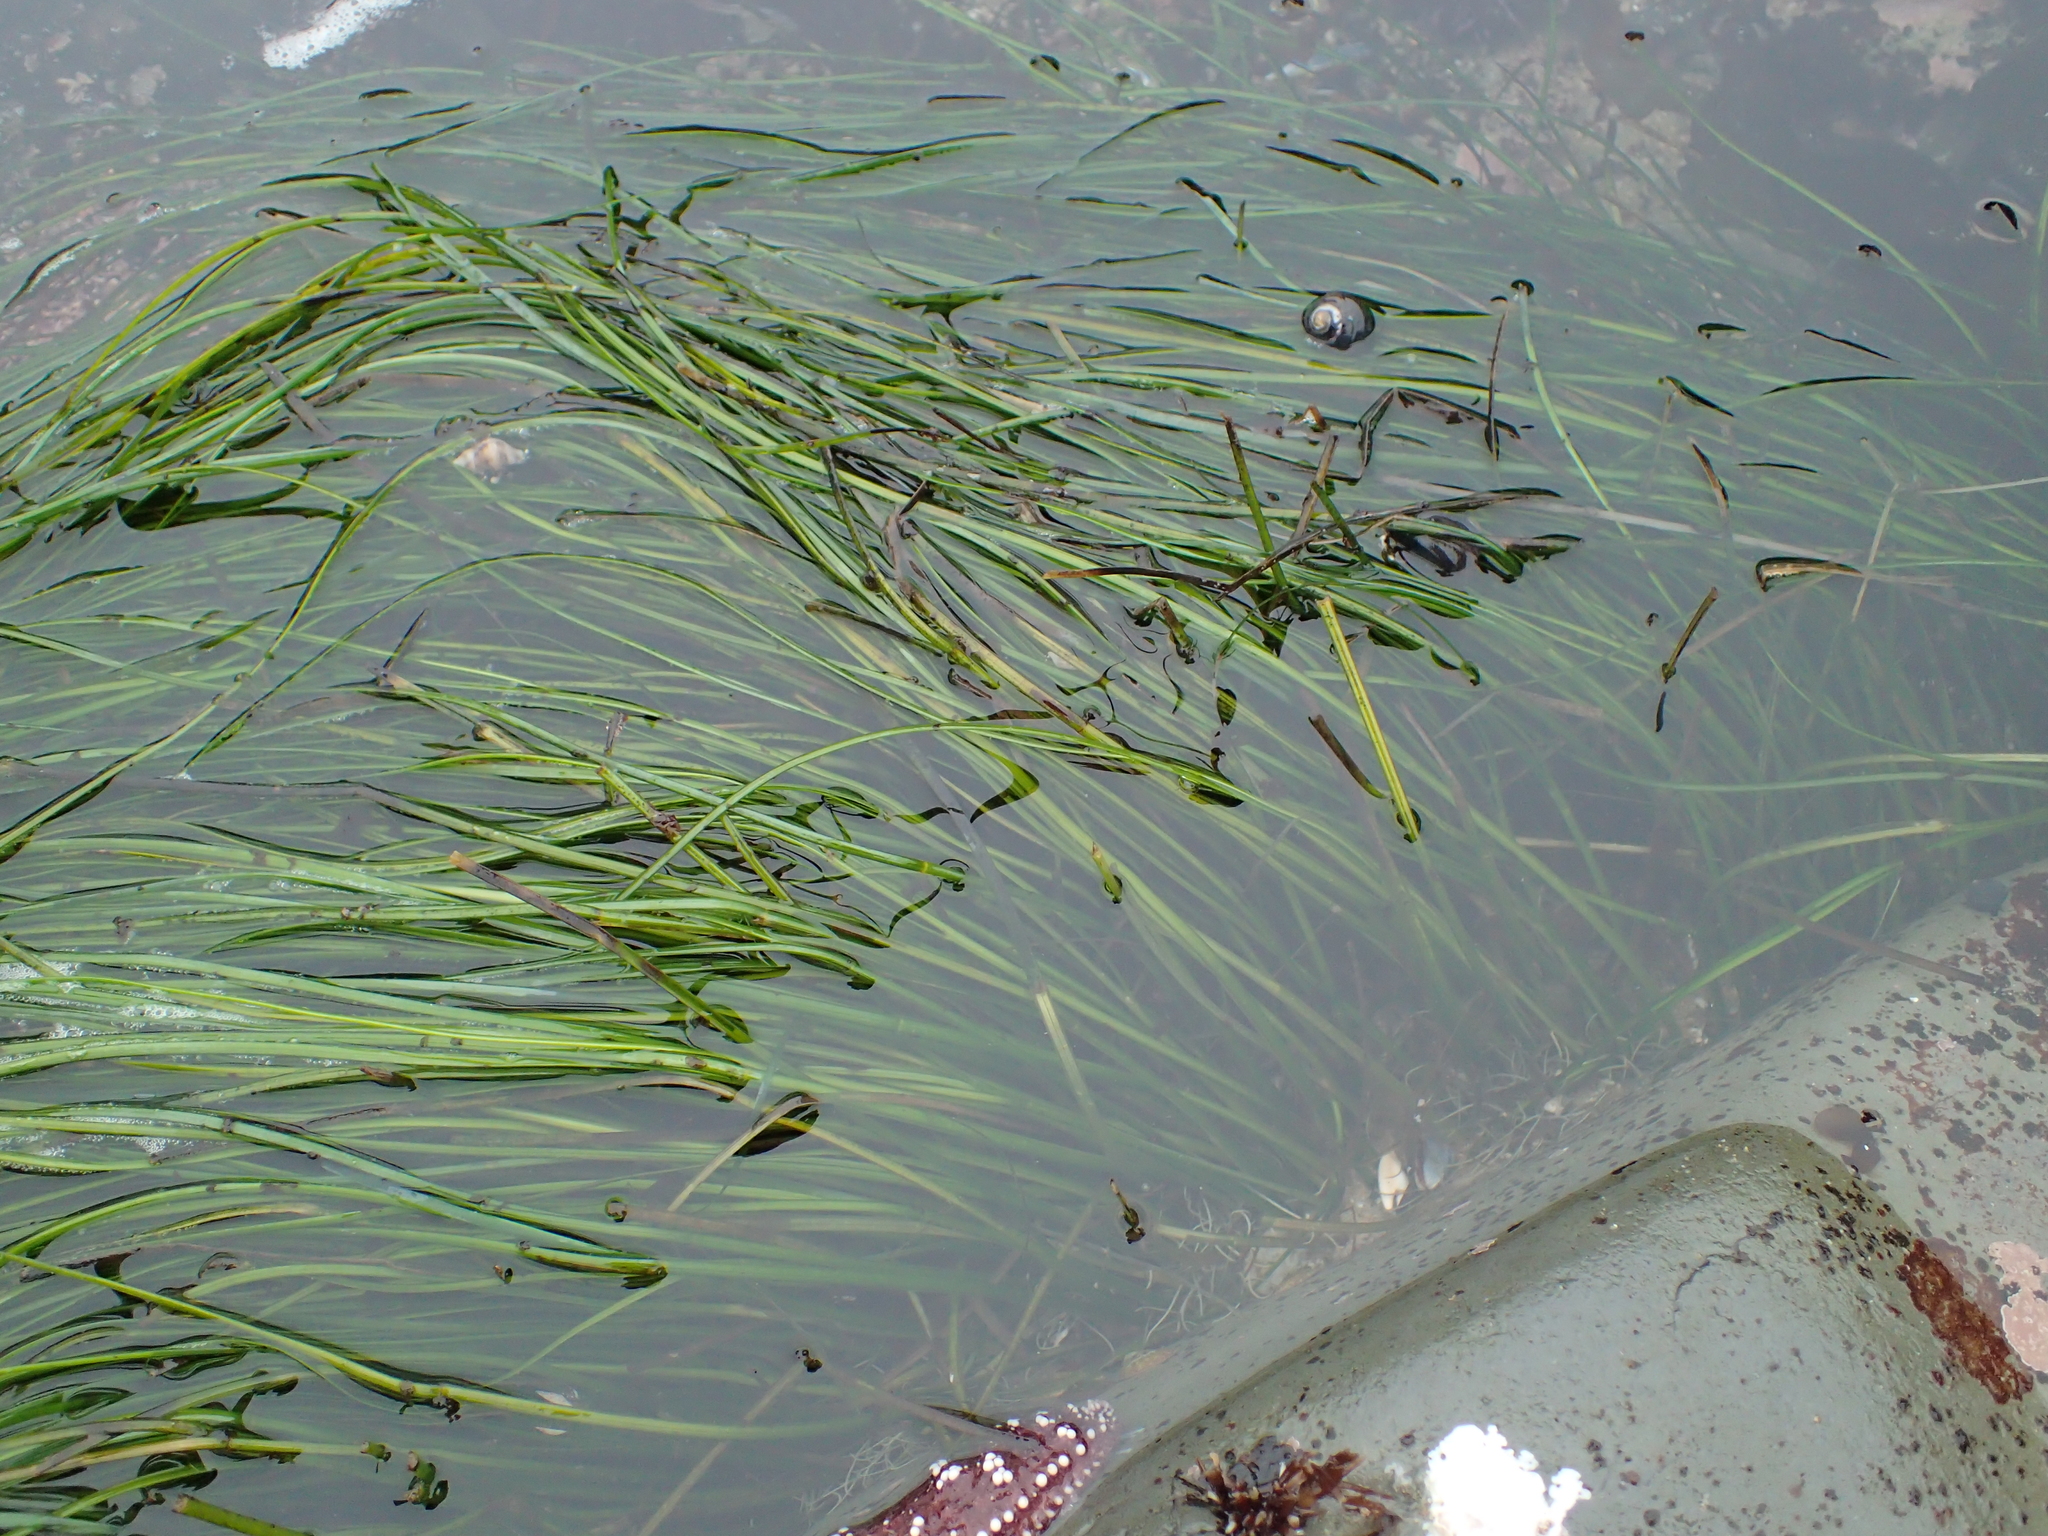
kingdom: Plantae
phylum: Tracheophyta
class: Liliopsida
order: Alismatales
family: Zosteraceae
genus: Phyllospadix
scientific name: Phyllospadix torreyi
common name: Surfgrass
